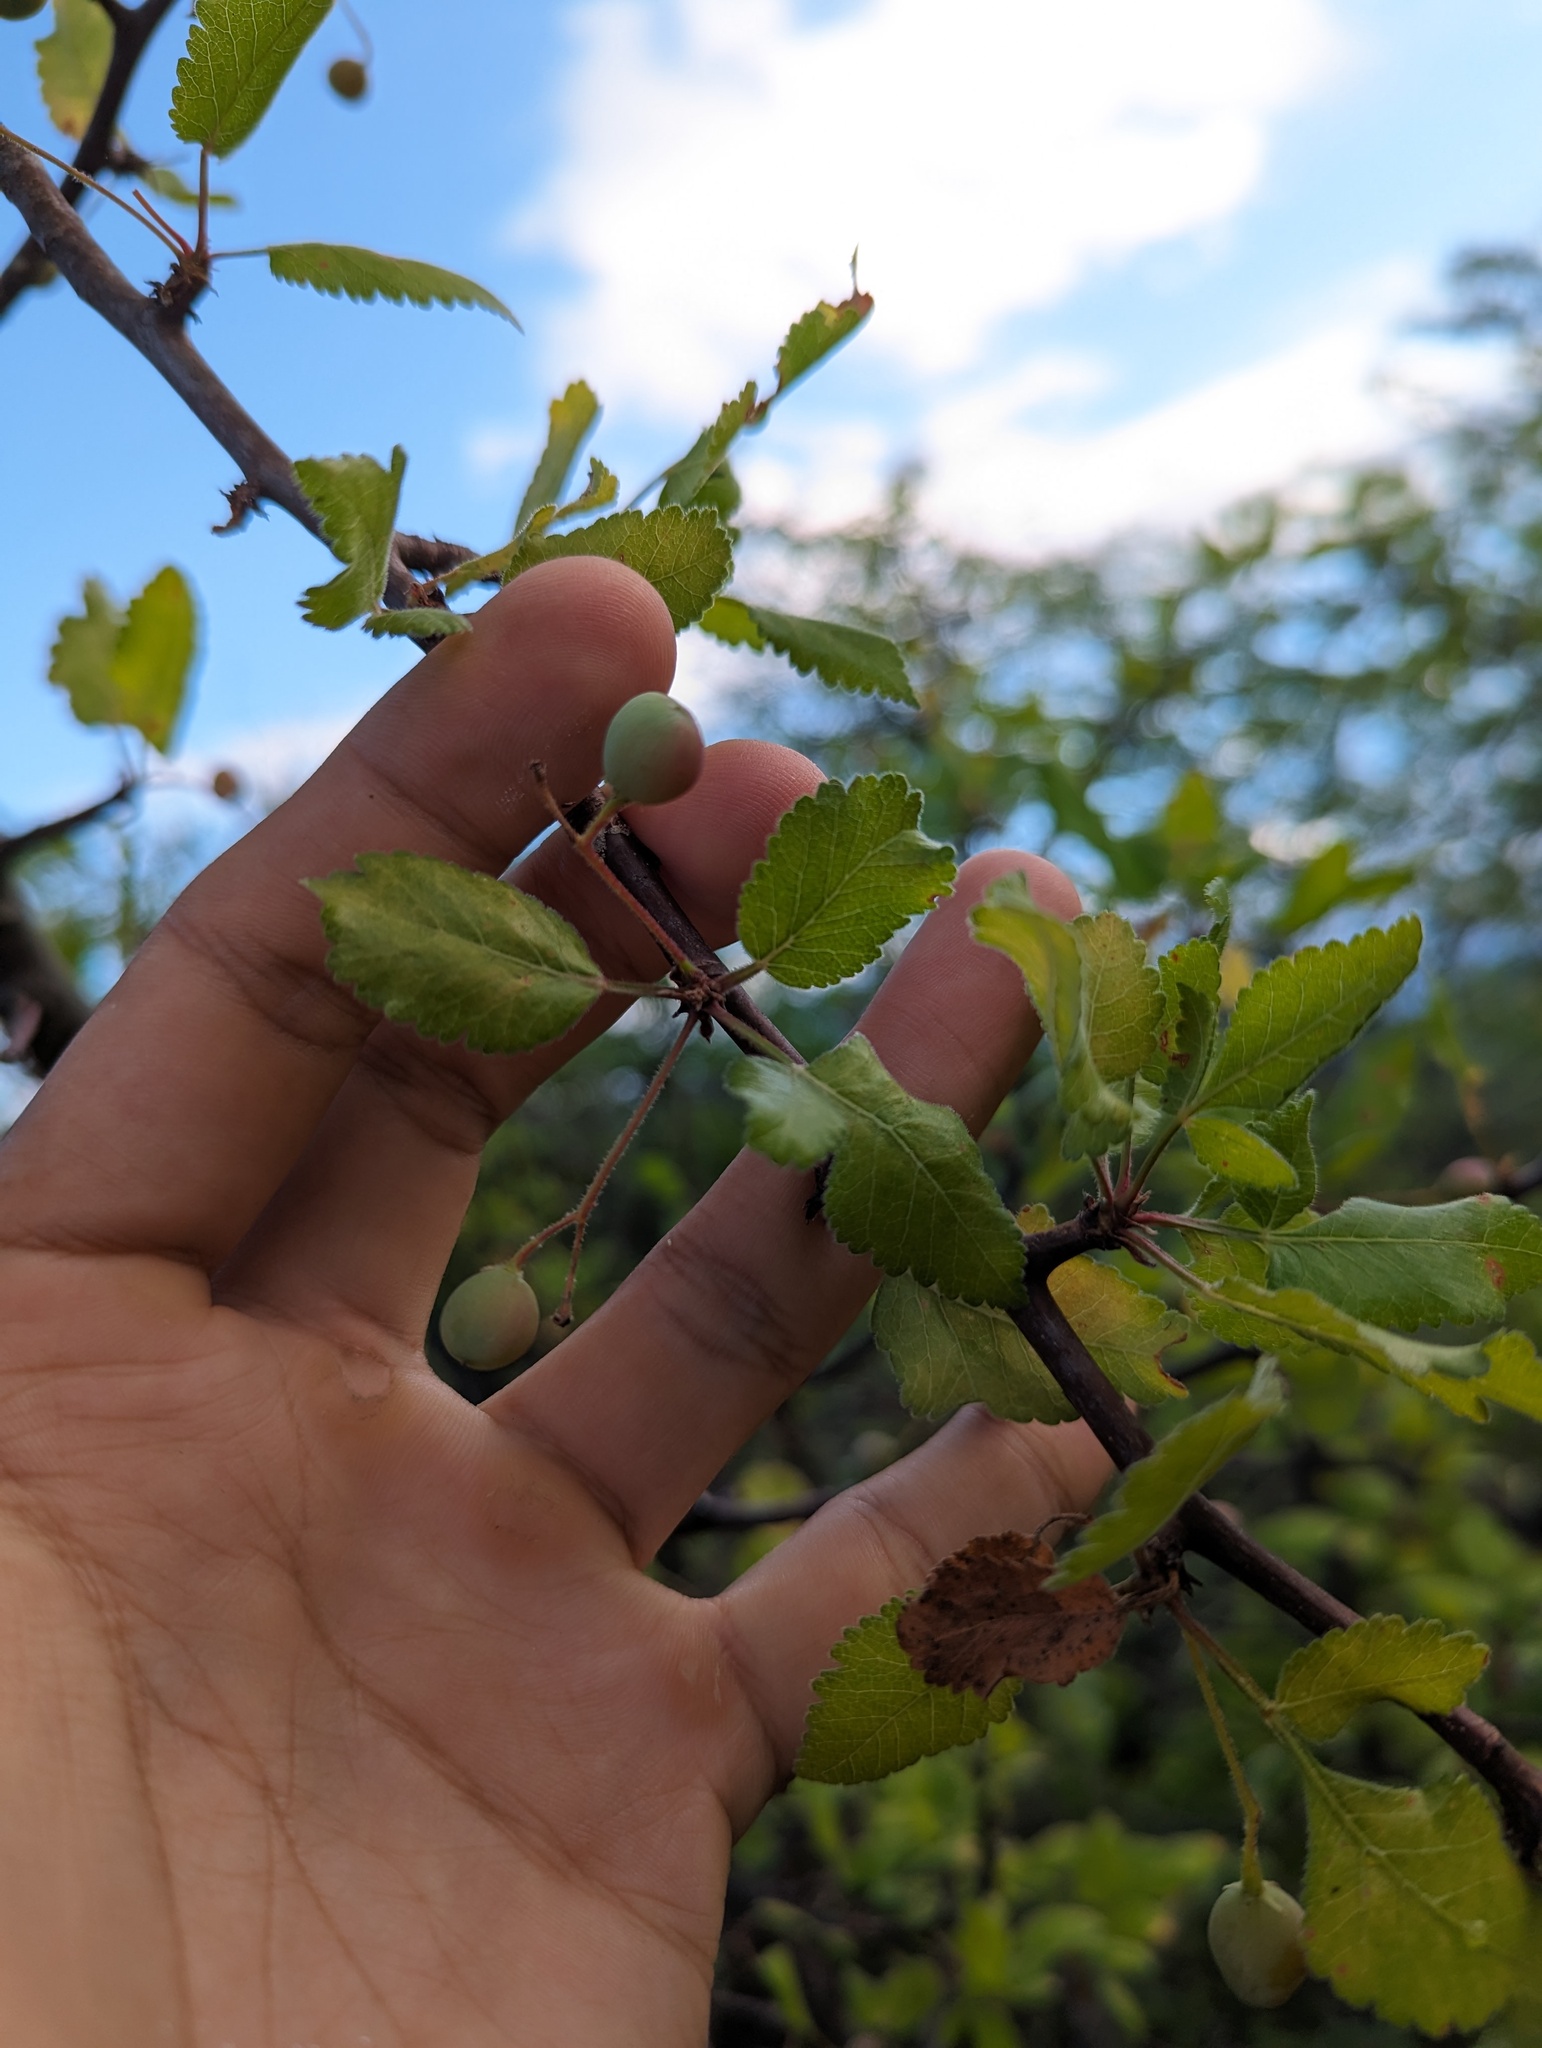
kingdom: Plantae
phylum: Tracheophyta
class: Magnoliopsida
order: Sapindales
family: Burseraceae
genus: Bursera
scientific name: Bursera epinnata
